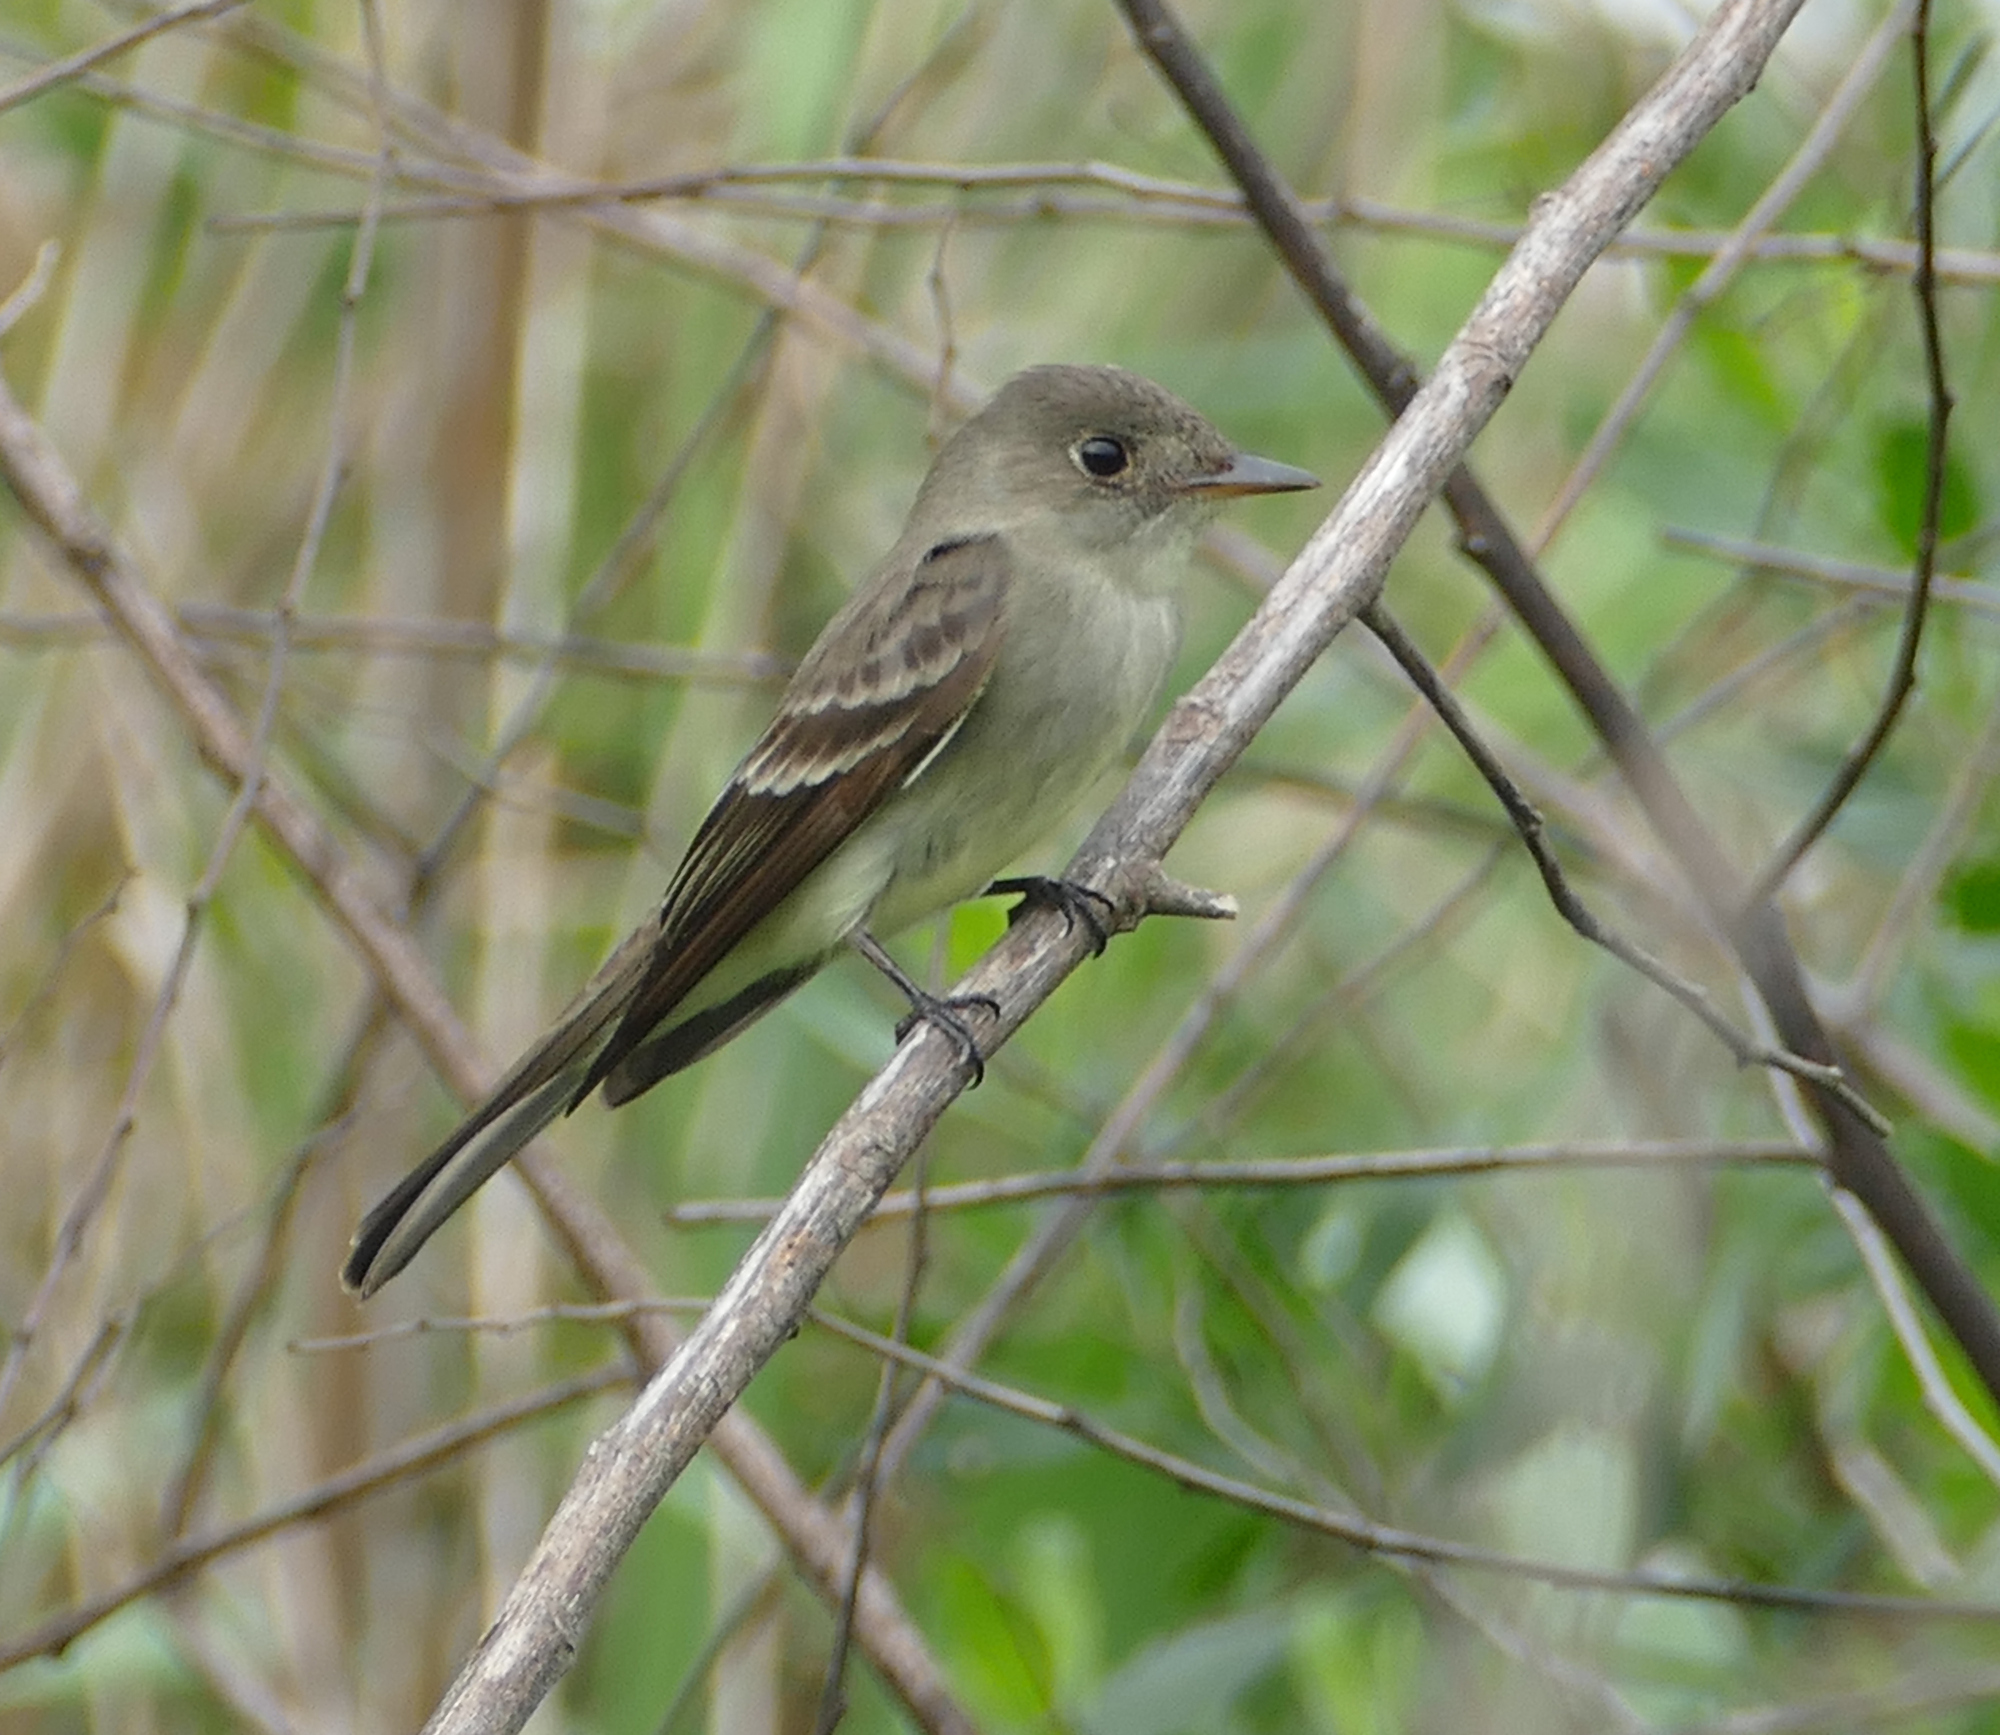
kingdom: Animalia
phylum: Chordata
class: Aves
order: Passeriformes
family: Tyrannidae
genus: Contopus
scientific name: Contopus virens
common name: Eastern wood-pewee
